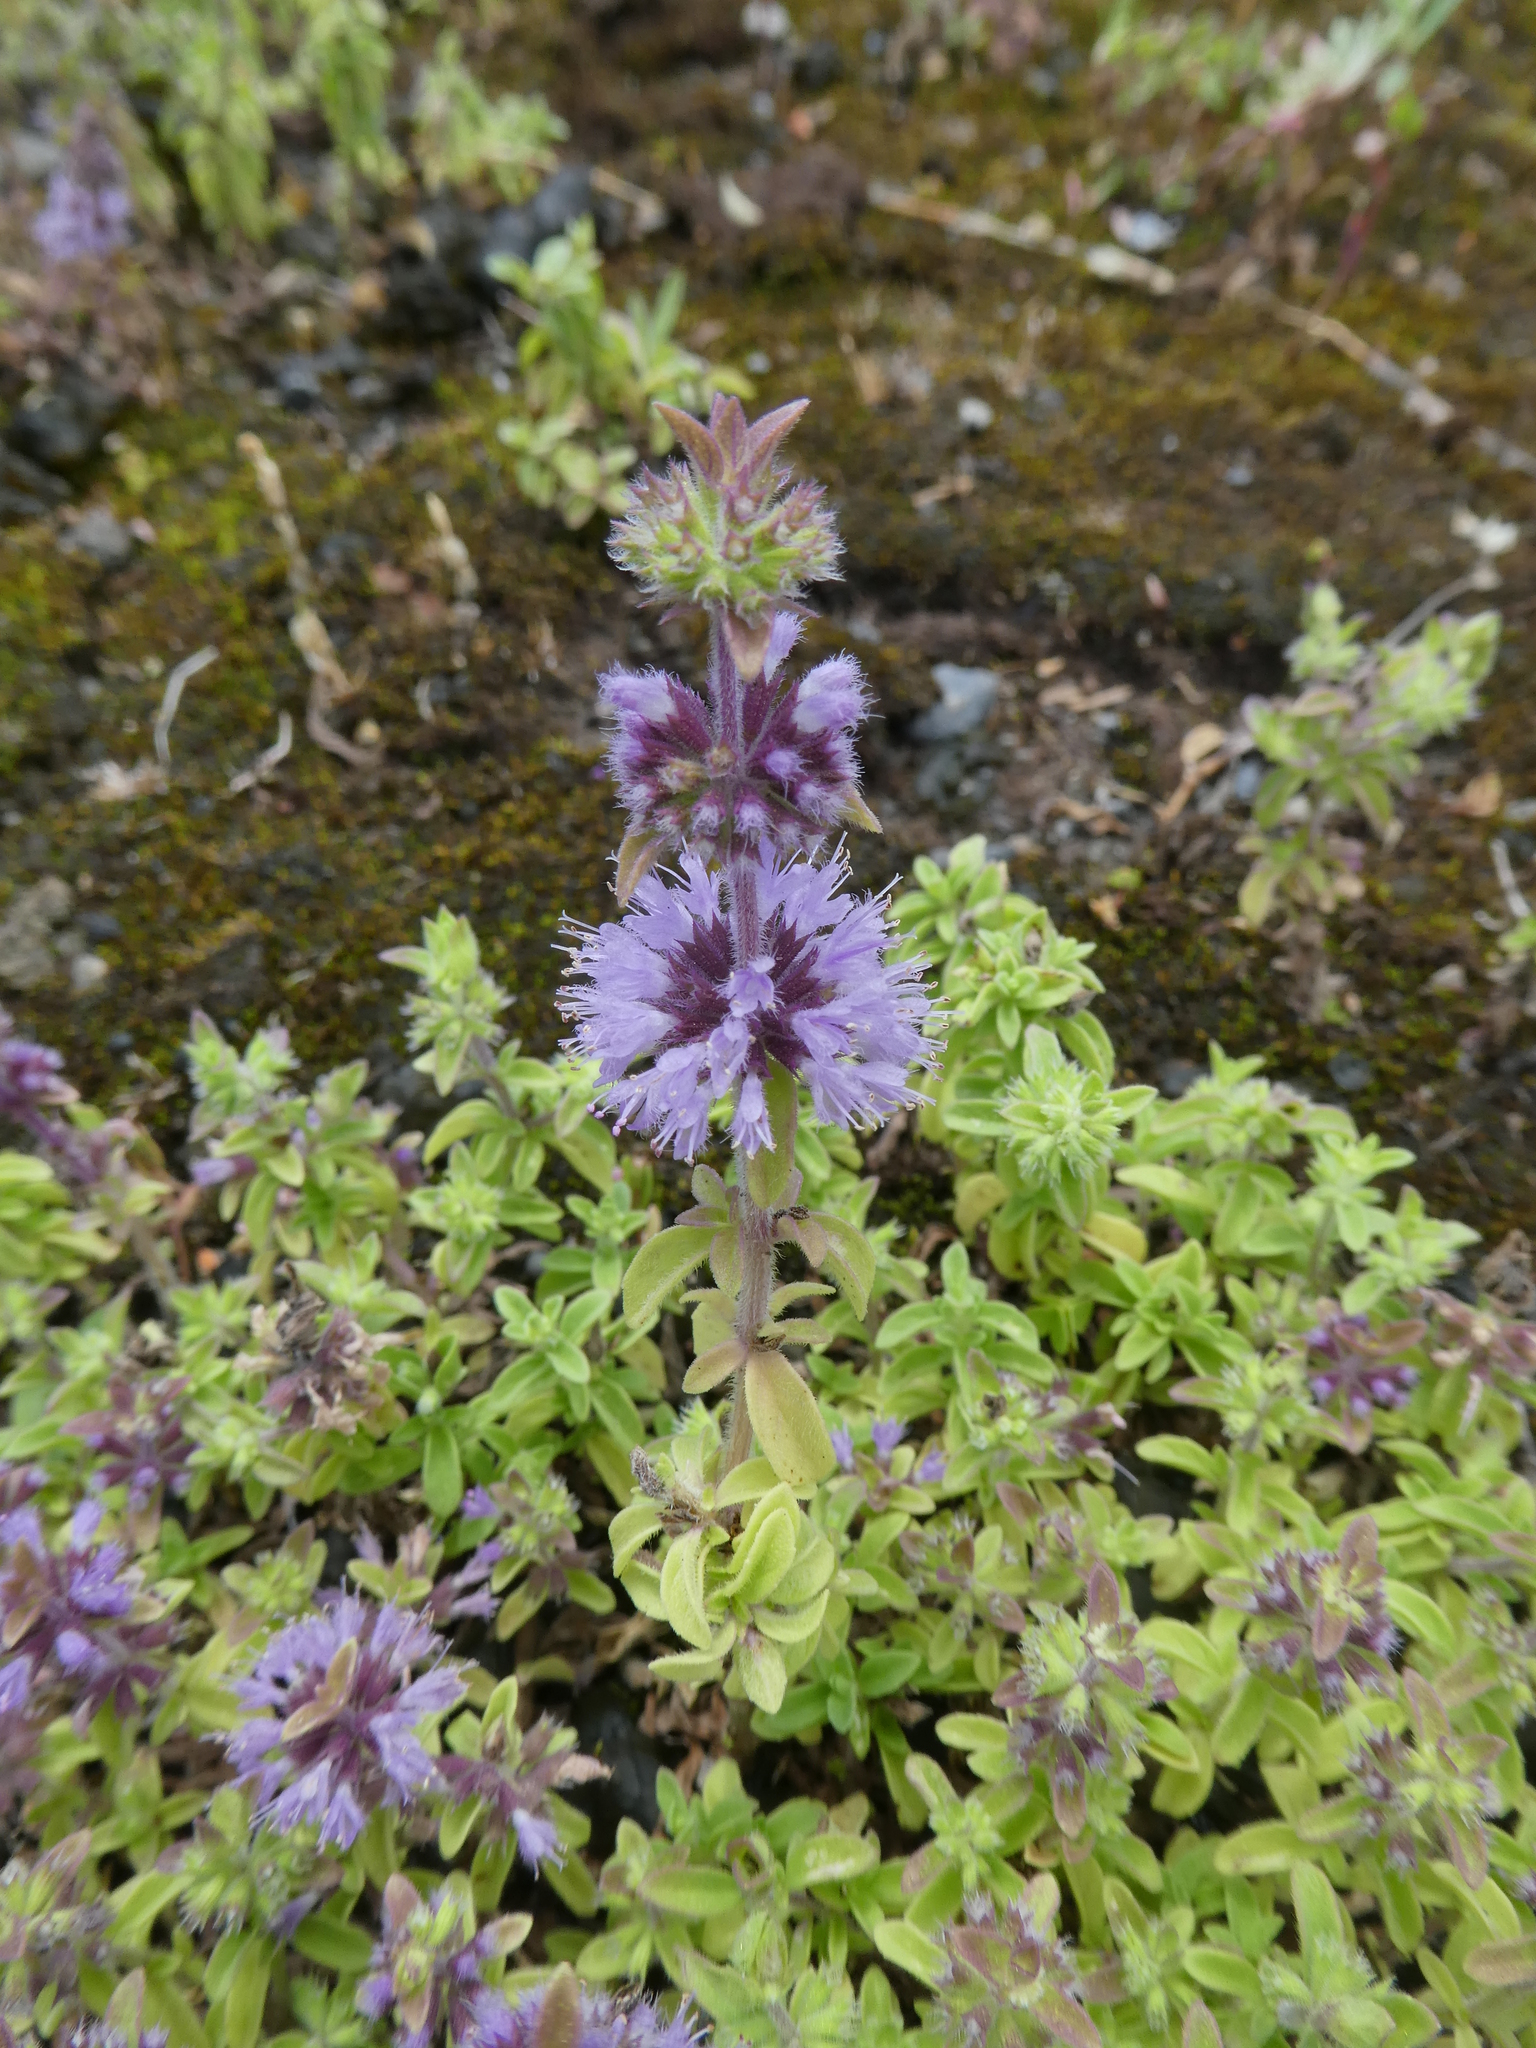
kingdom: Plantae
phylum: Tracheophyta
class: Magnoliopsida
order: Lamiales
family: Lamiaceae
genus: Mentha
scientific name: Mentha pulegium
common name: Pennyroyal
